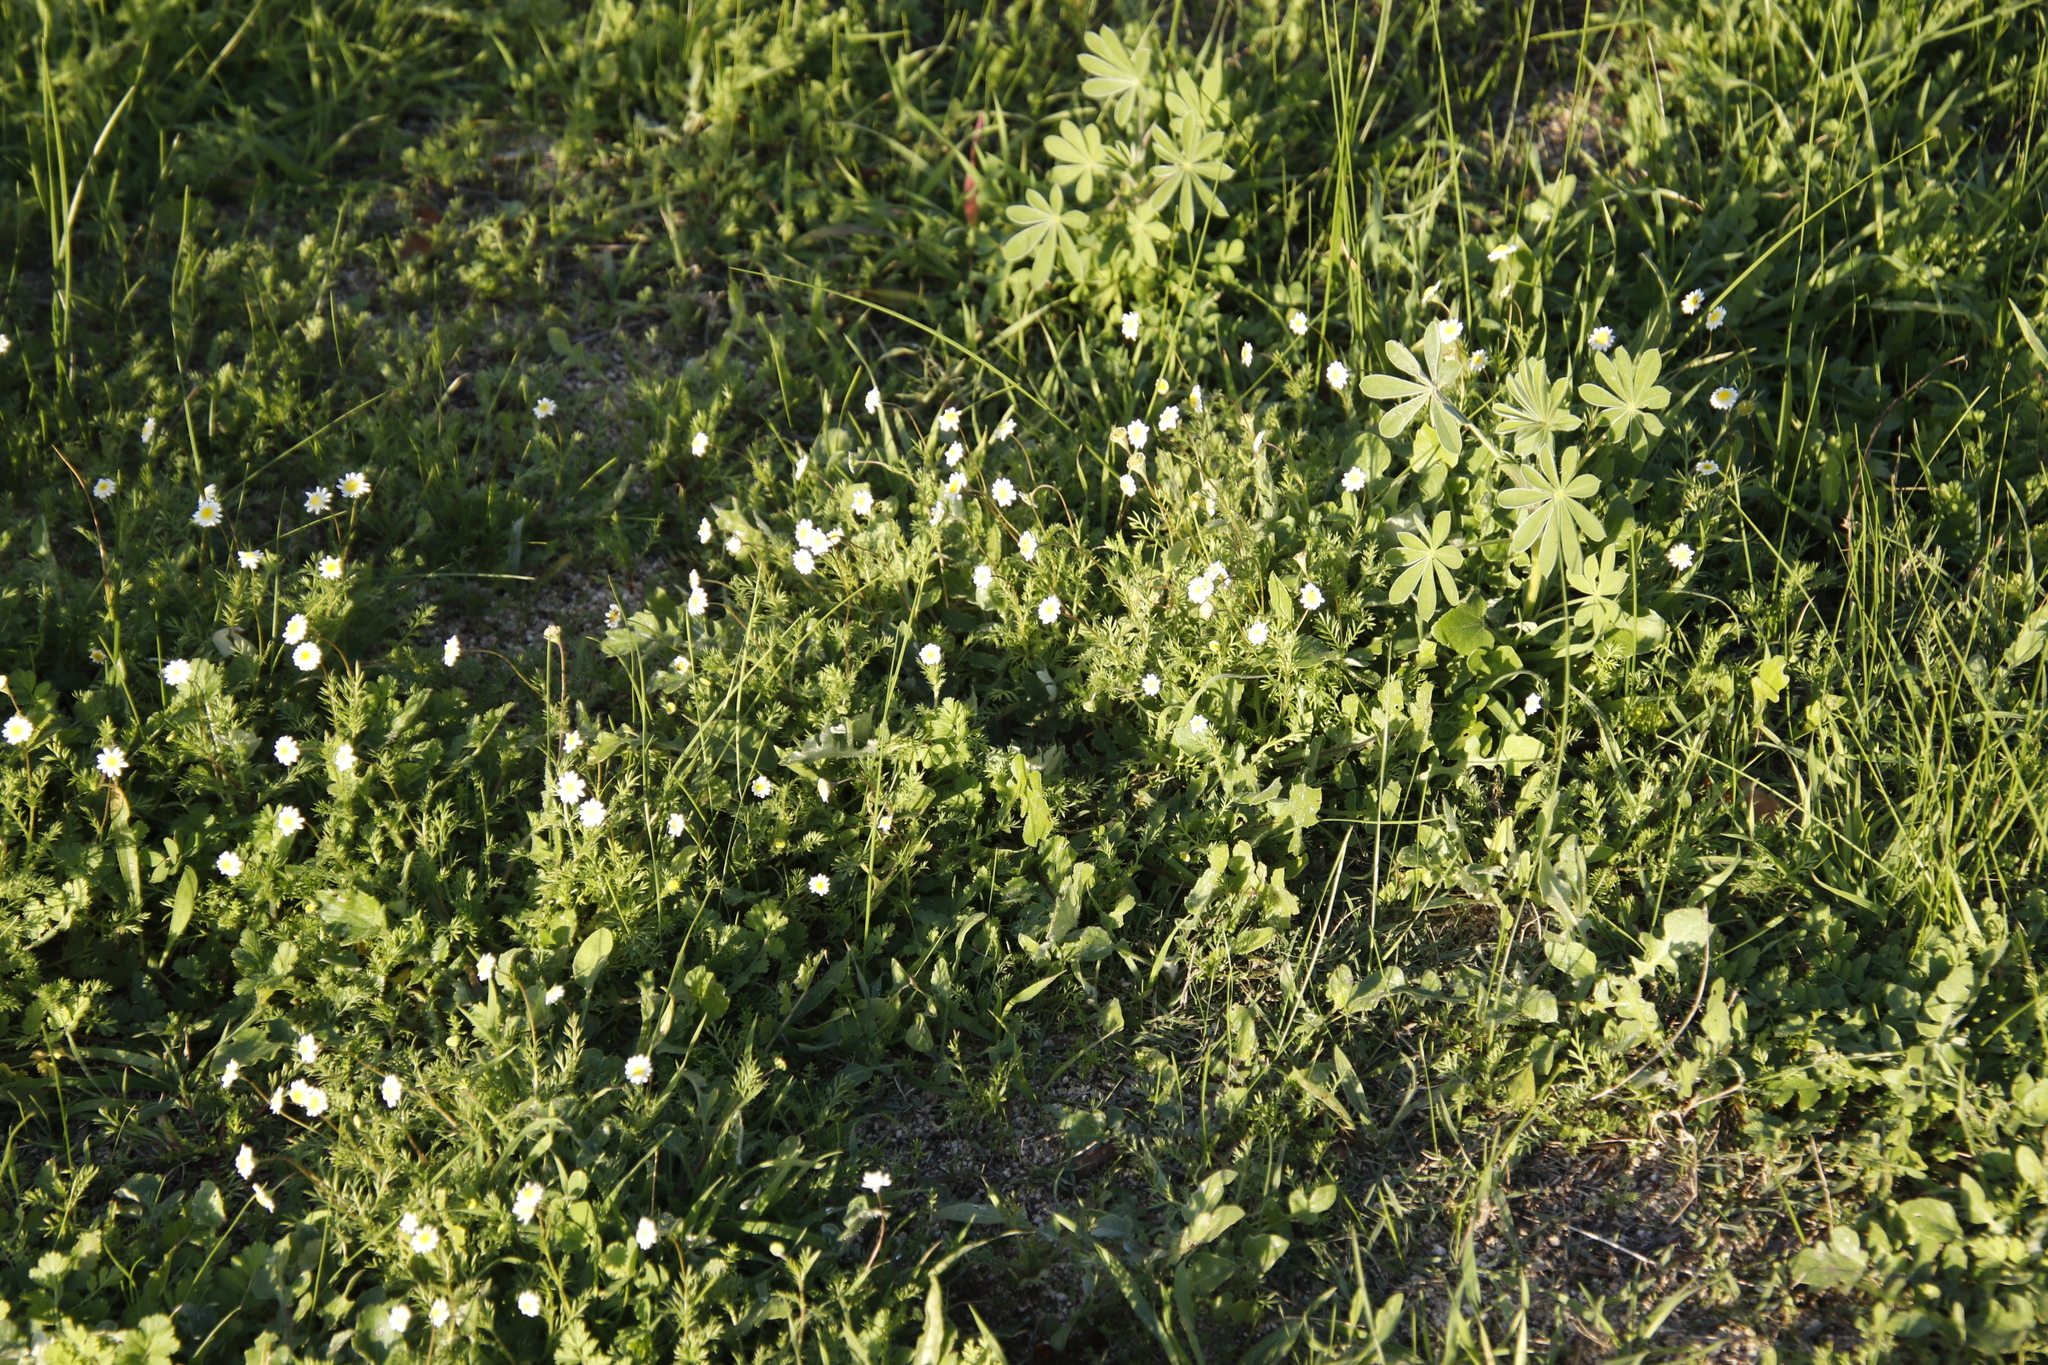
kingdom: Plantae
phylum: Tracheophyta
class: Magnoliopsida
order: Asterales
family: Asteraceae
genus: Cotula
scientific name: Cotula turbinata
